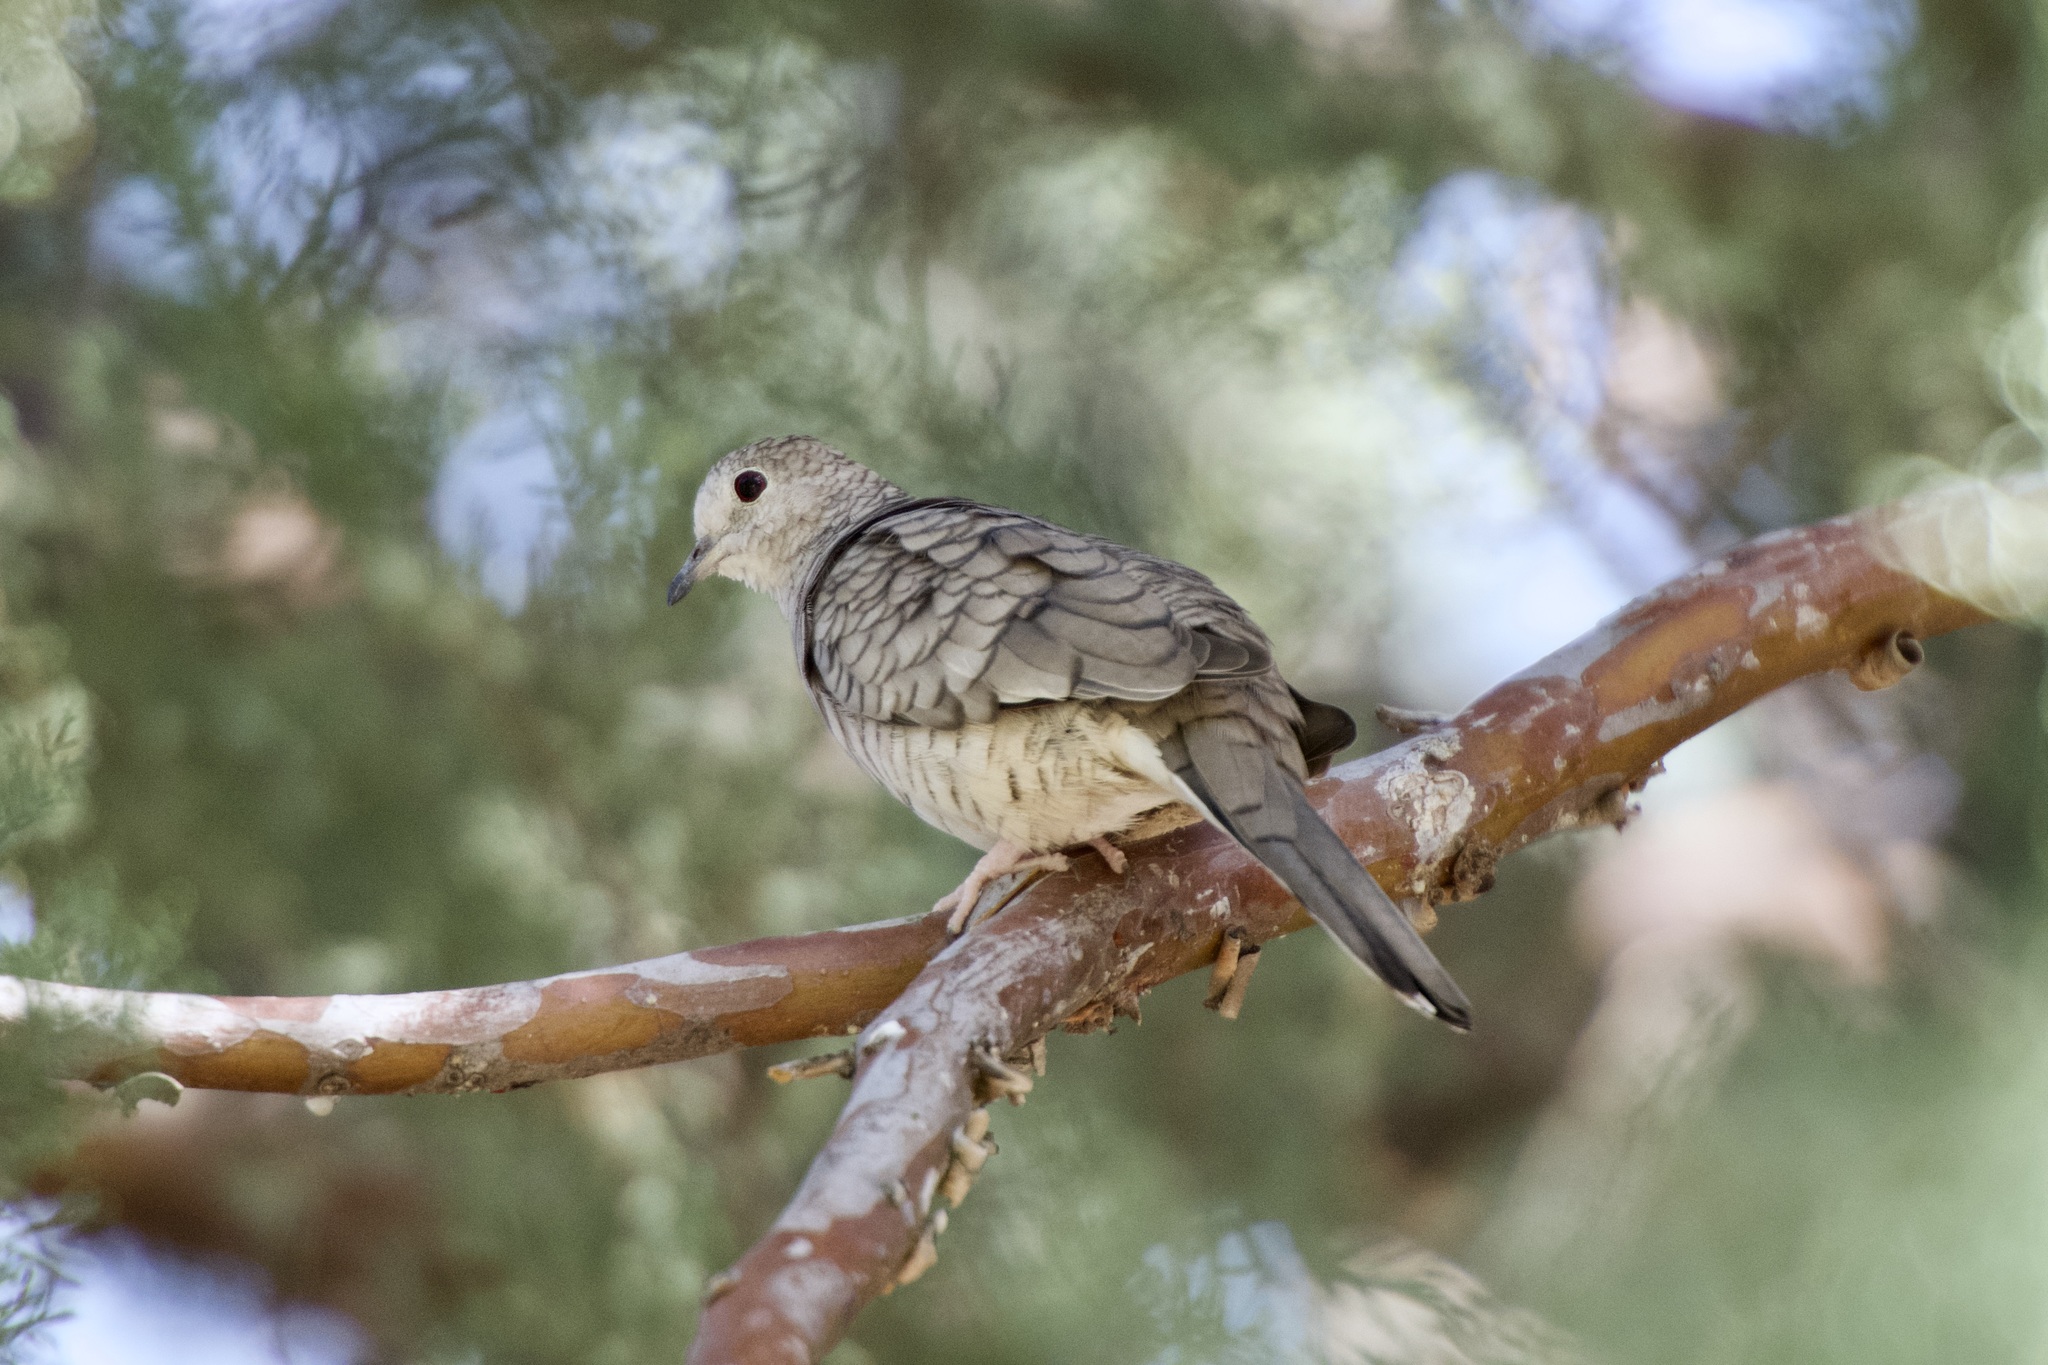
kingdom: Animalia
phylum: Chordata
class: Aves
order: Columbiformes
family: Columbidae
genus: Columbina
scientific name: Columbina inca
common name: Inca dove
